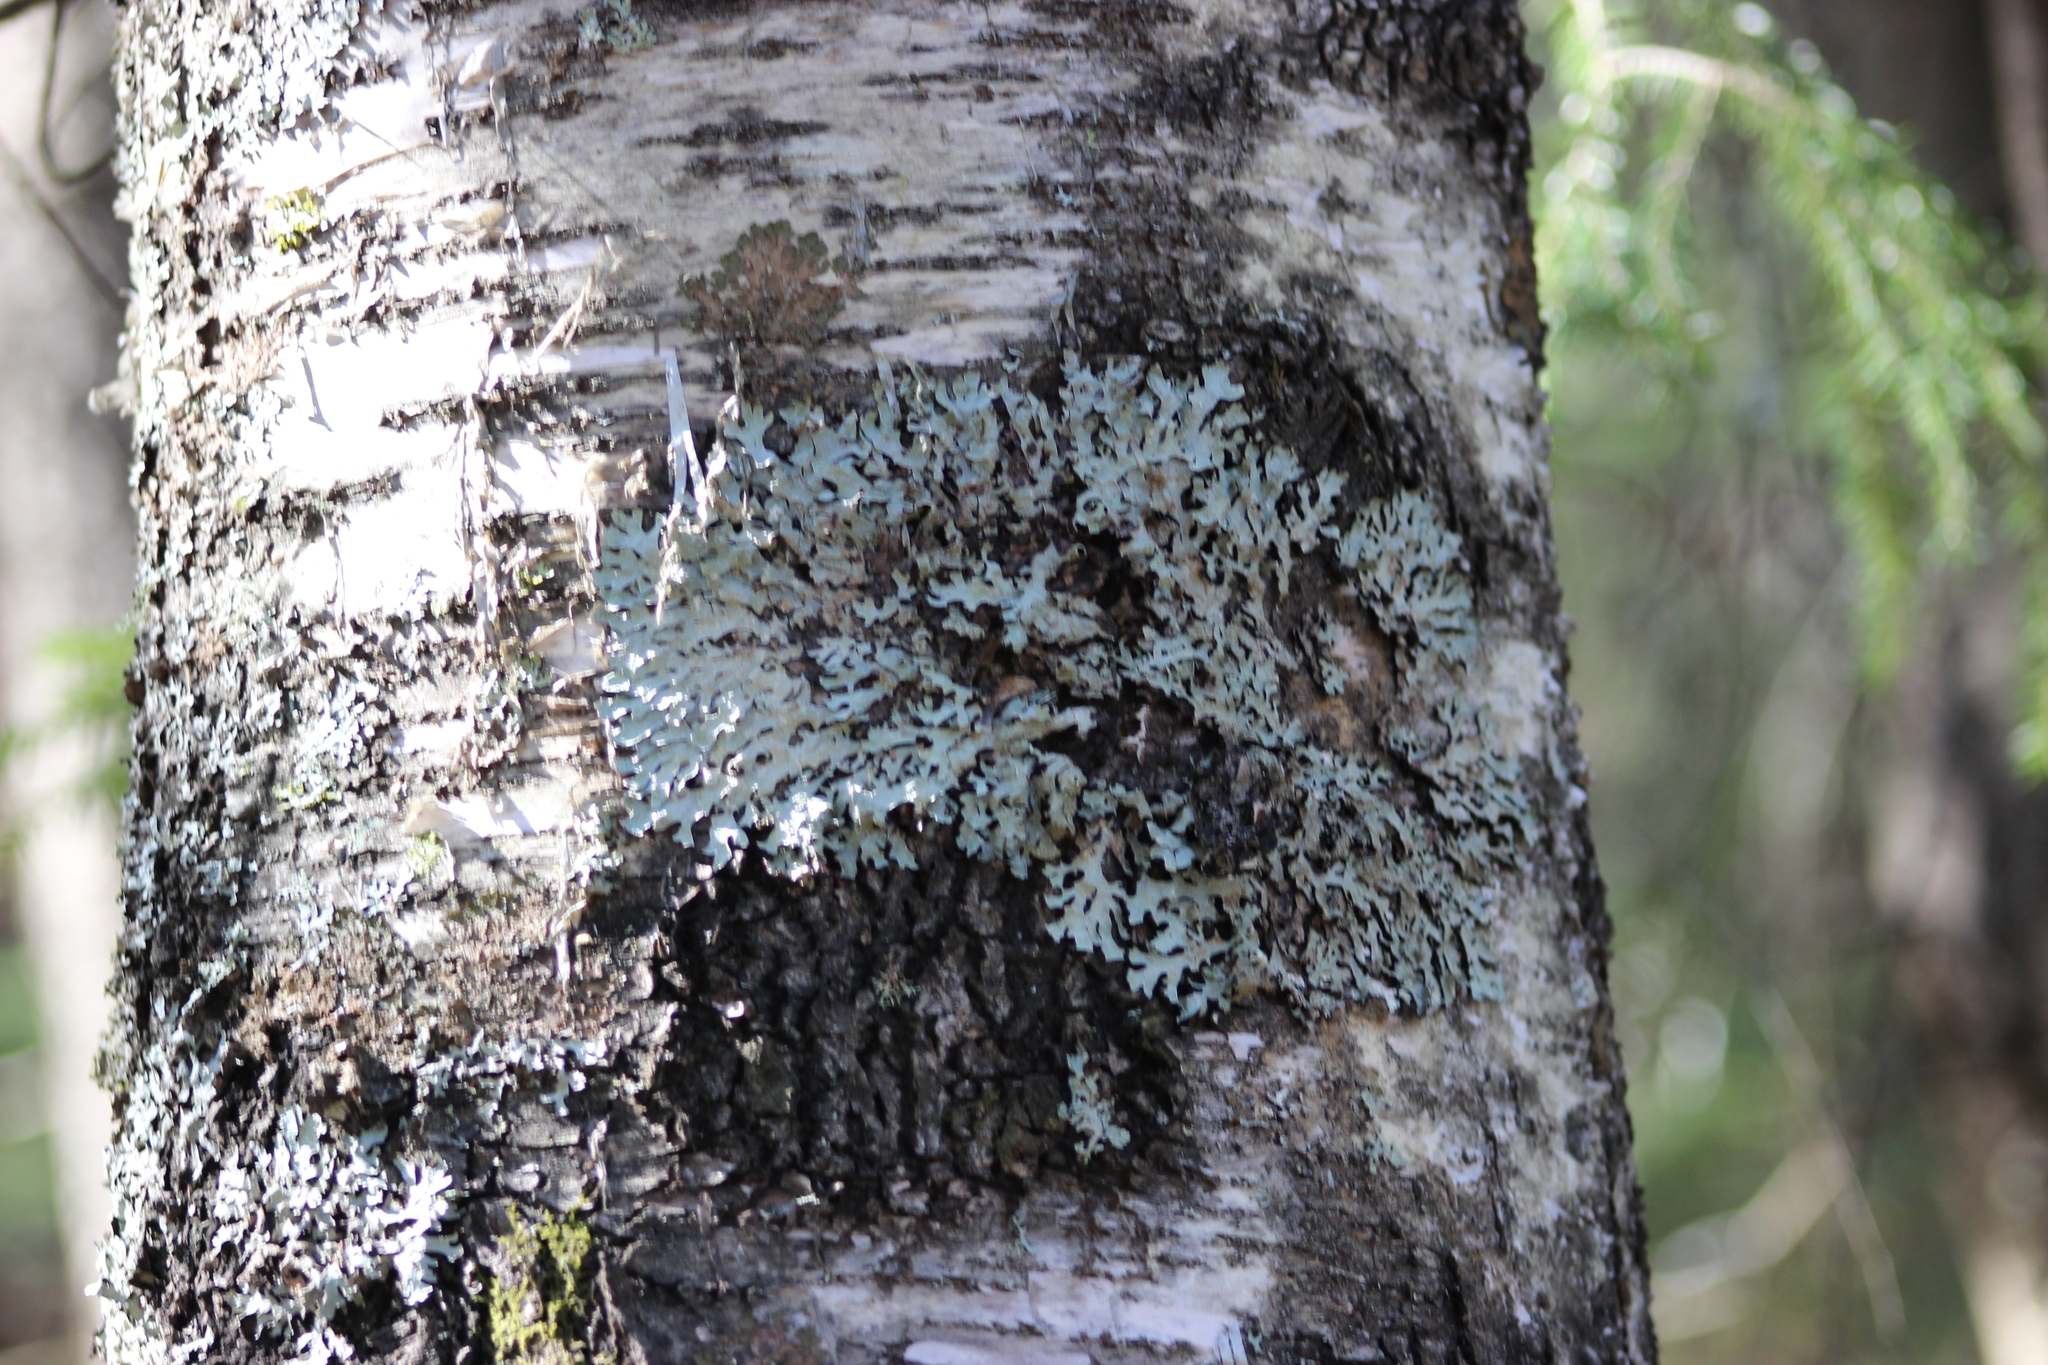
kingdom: Fungi
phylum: Ascomycota
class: Lecanoromycetes
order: Lecanorales
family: Parmeliaceae
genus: Parmelia
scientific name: Parmelia sulcata
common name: Netted shield lichen
